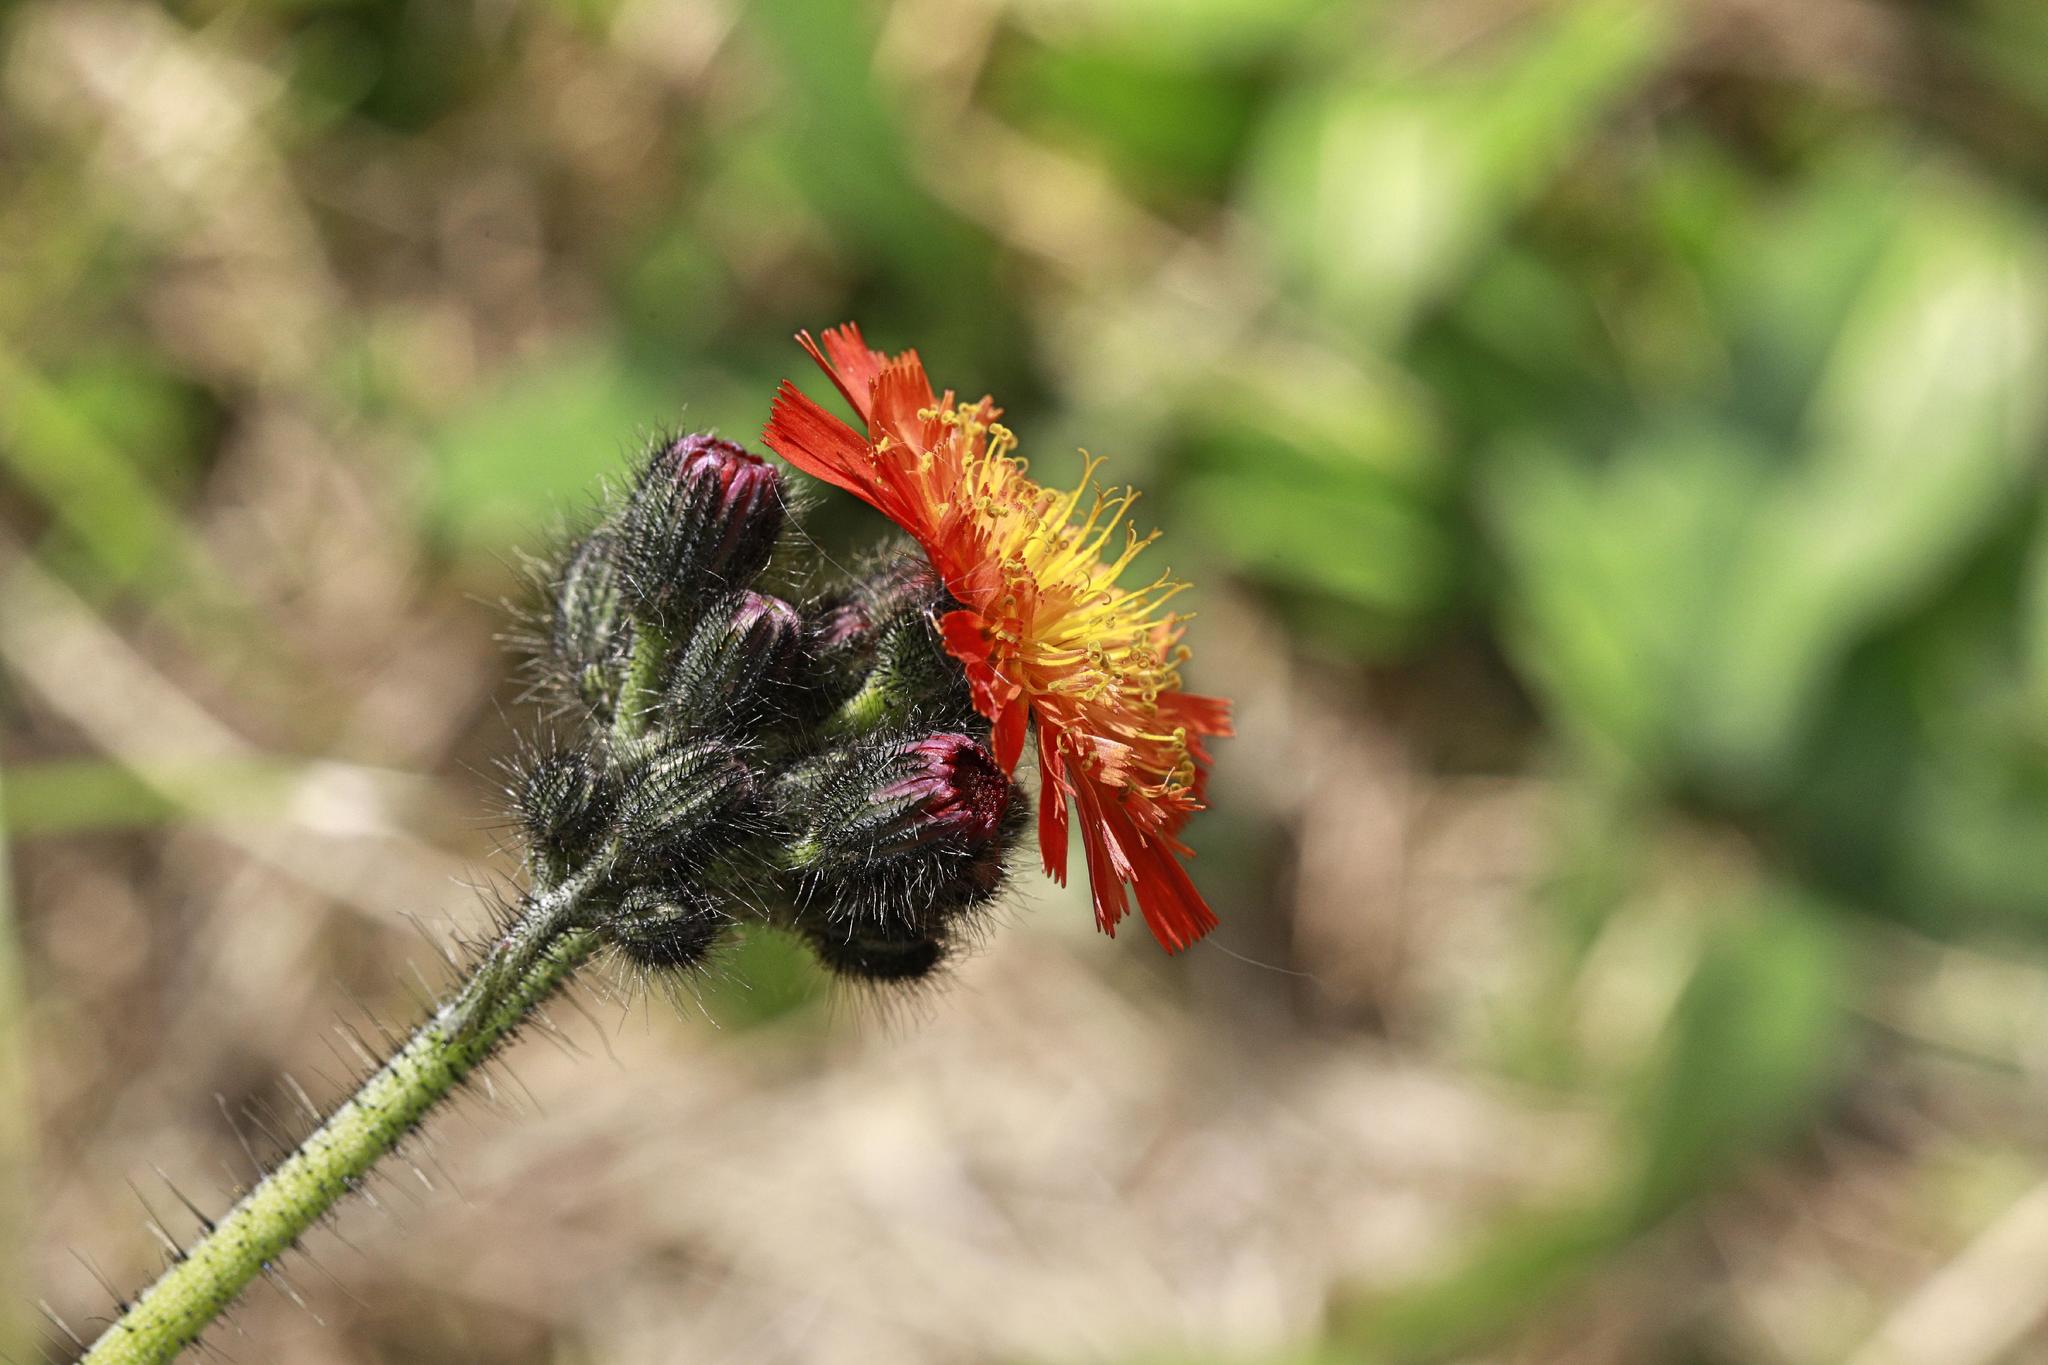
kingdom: Plantae
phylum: Tracheophyta
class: Magnoliopsida
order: Asterales
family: Asteraceae
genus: Pilosella
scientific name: Pilosella aurantiaca
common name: Fox-and-cubs
